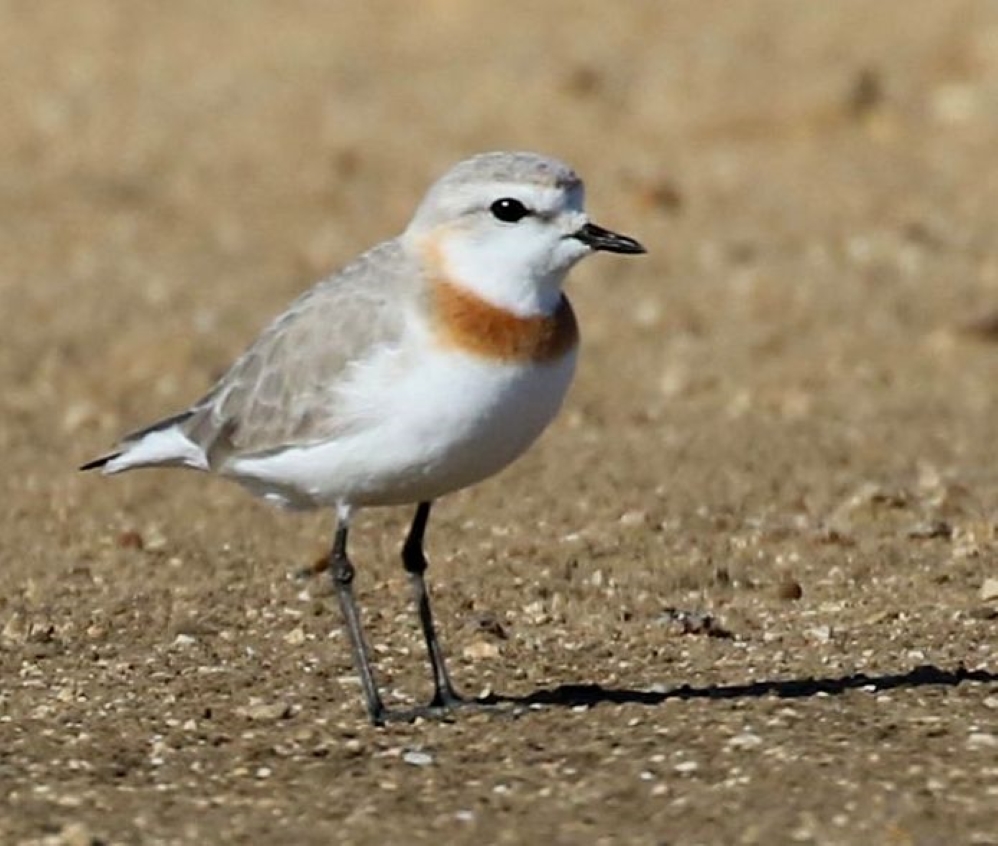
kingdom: Animalia
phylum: Chordata
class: Aves
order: Charadriiformes
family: Charadriidae
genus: Anarhynchus
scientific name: Anarhynchus
